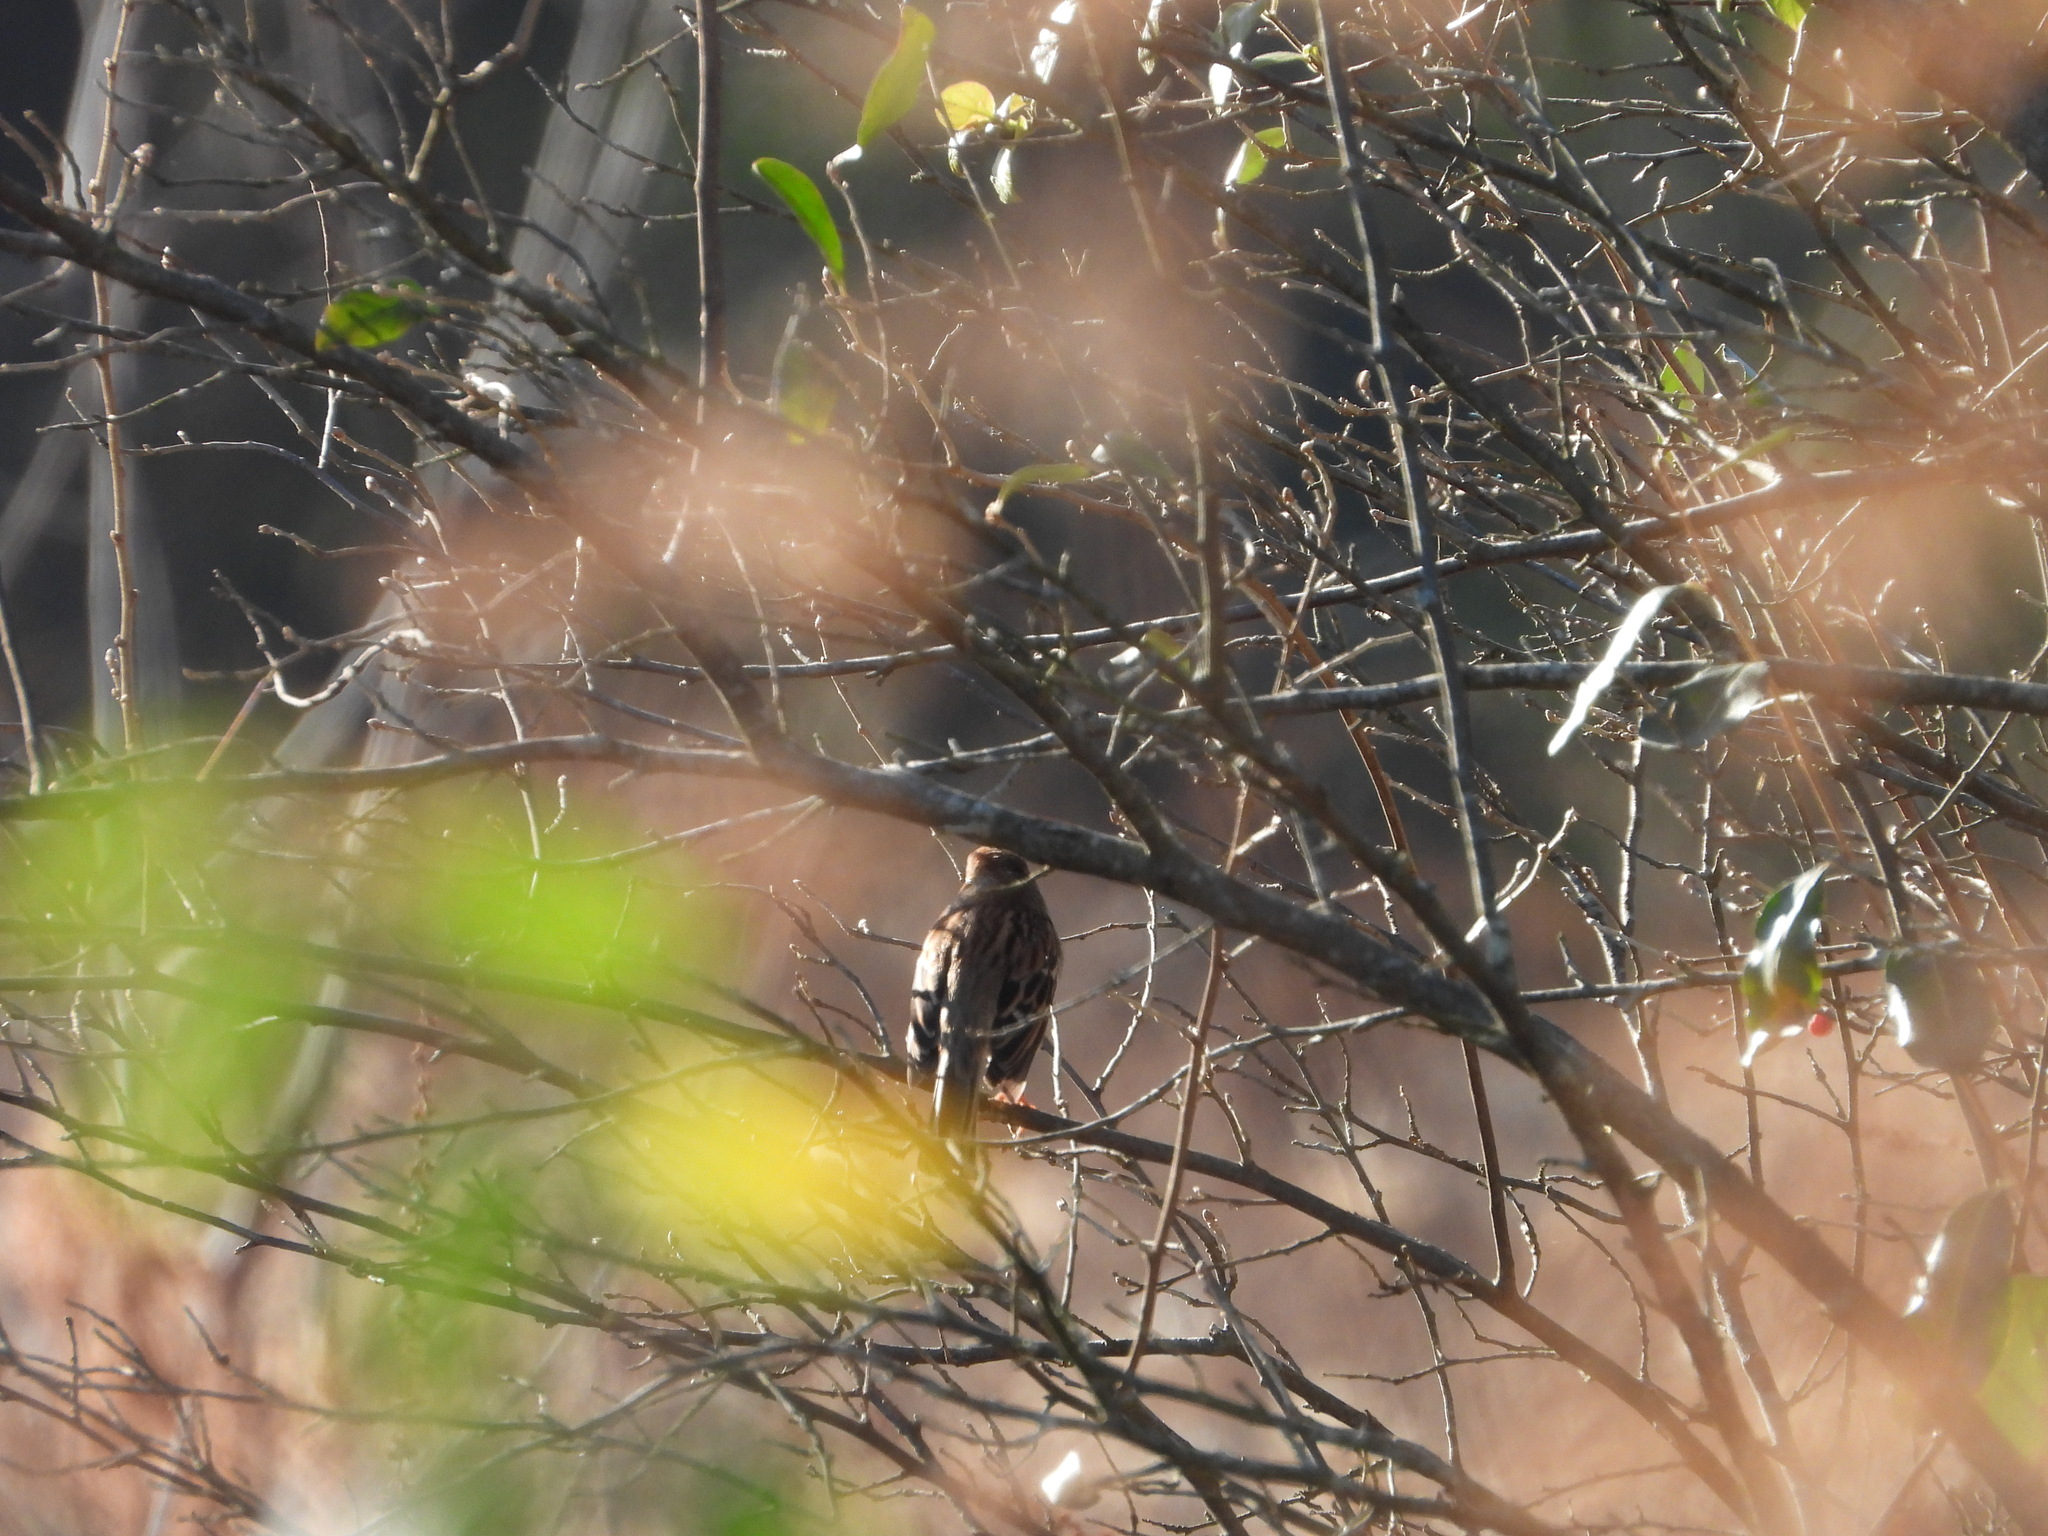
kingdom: Animalia
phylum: Chordata
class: Aves
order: Passeriformes
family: Passerellidae
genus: Spizella
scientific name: Spizella pusilla
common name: Field sparrow
